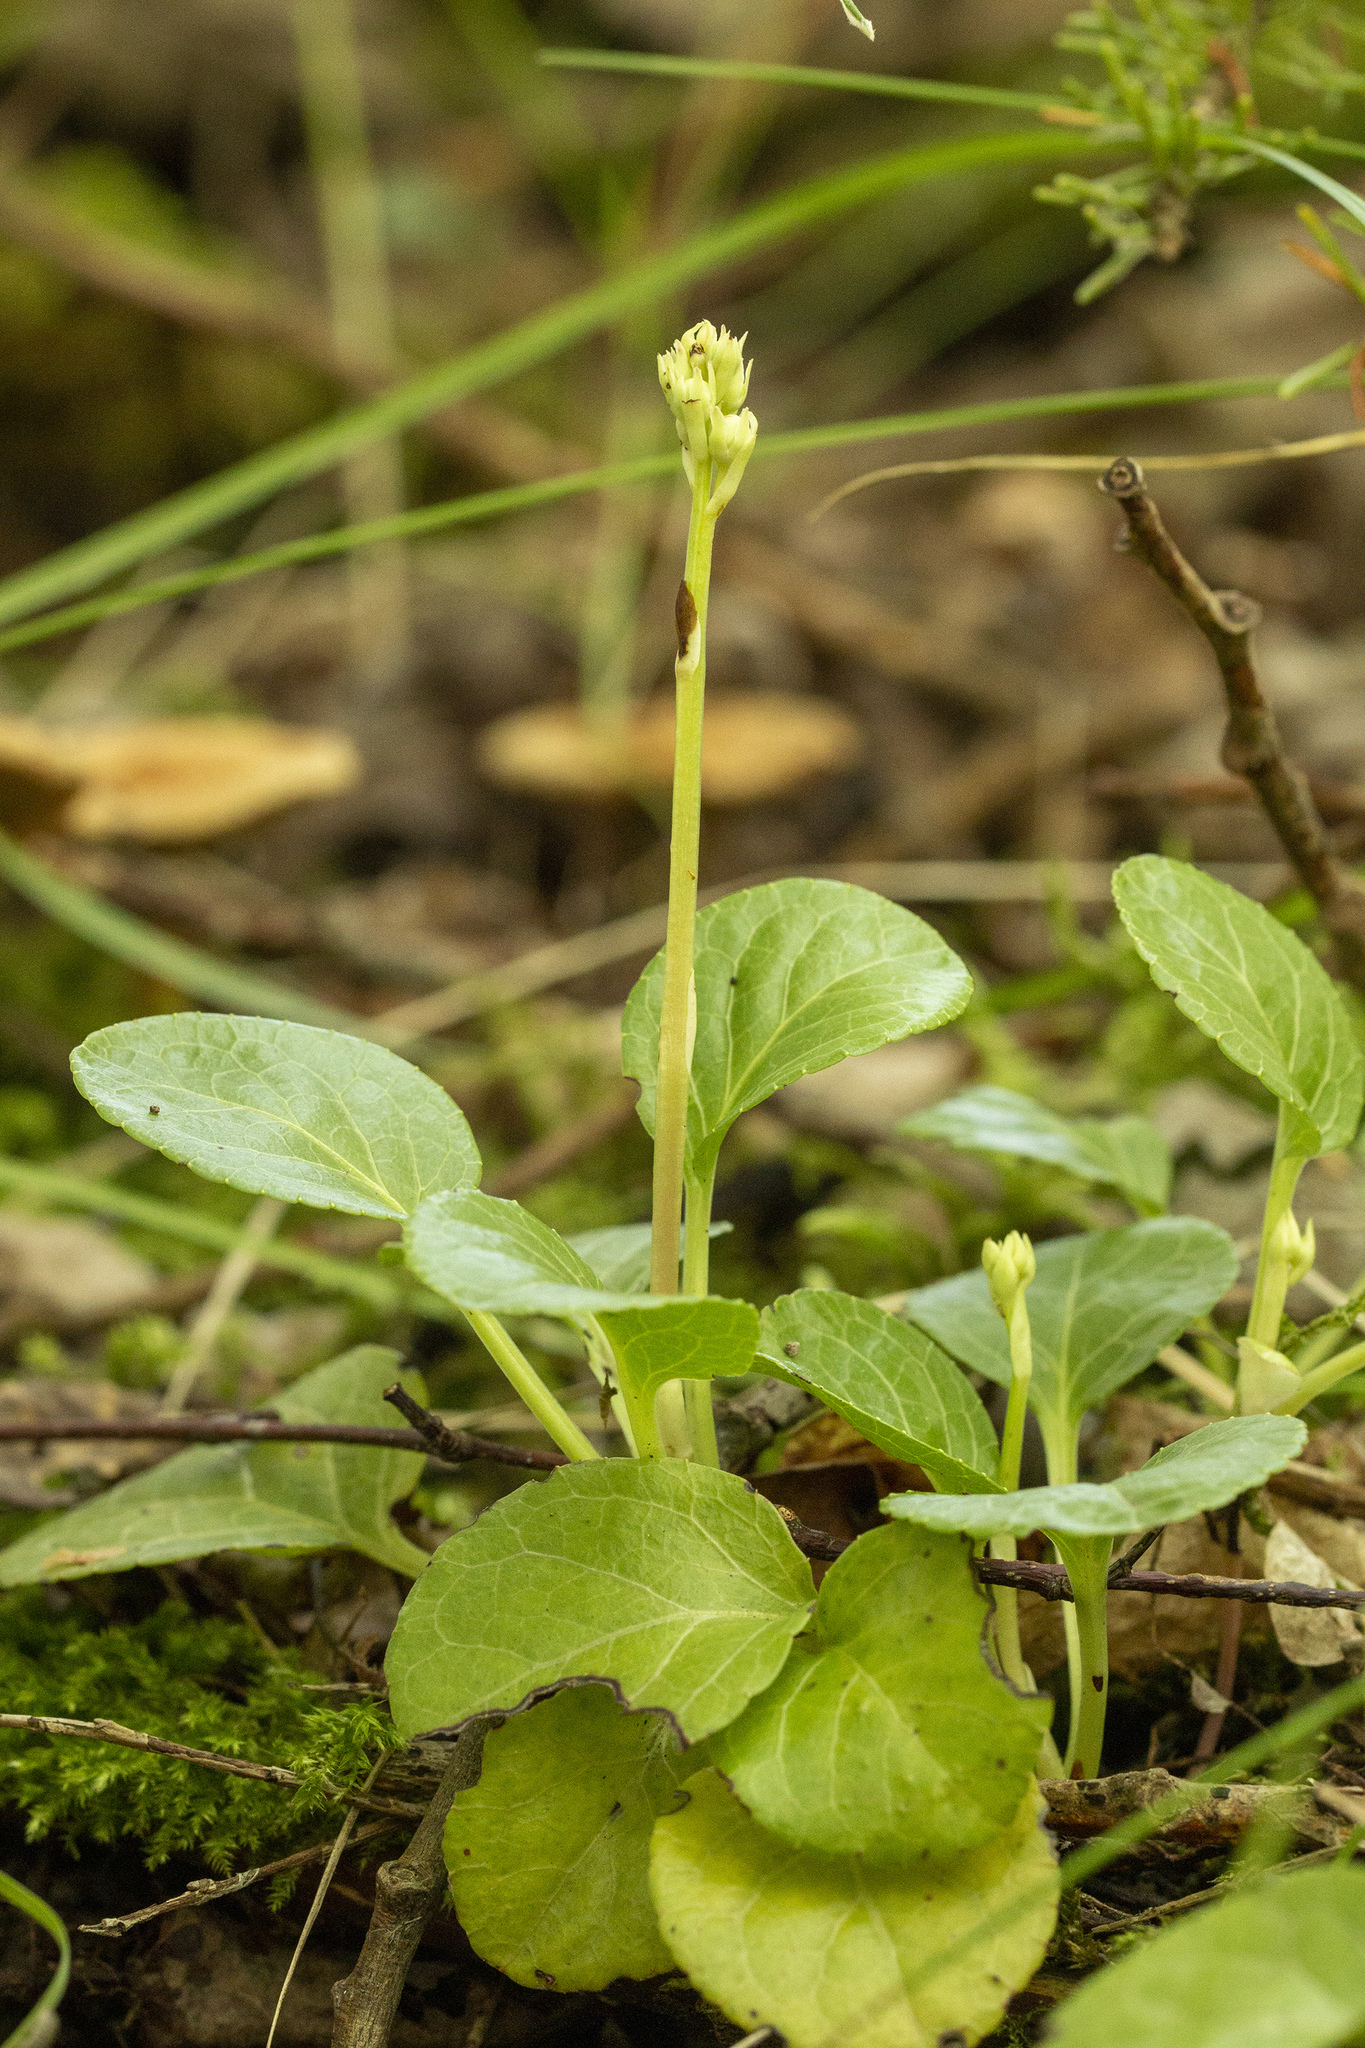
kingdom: Plantae
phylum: Tracheophyta
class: Magnoliopsida
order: Ericales
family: Ericaceae
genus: Pyrola
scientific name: Pyrola rotundifolia
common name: Round-leaved wintergreen
